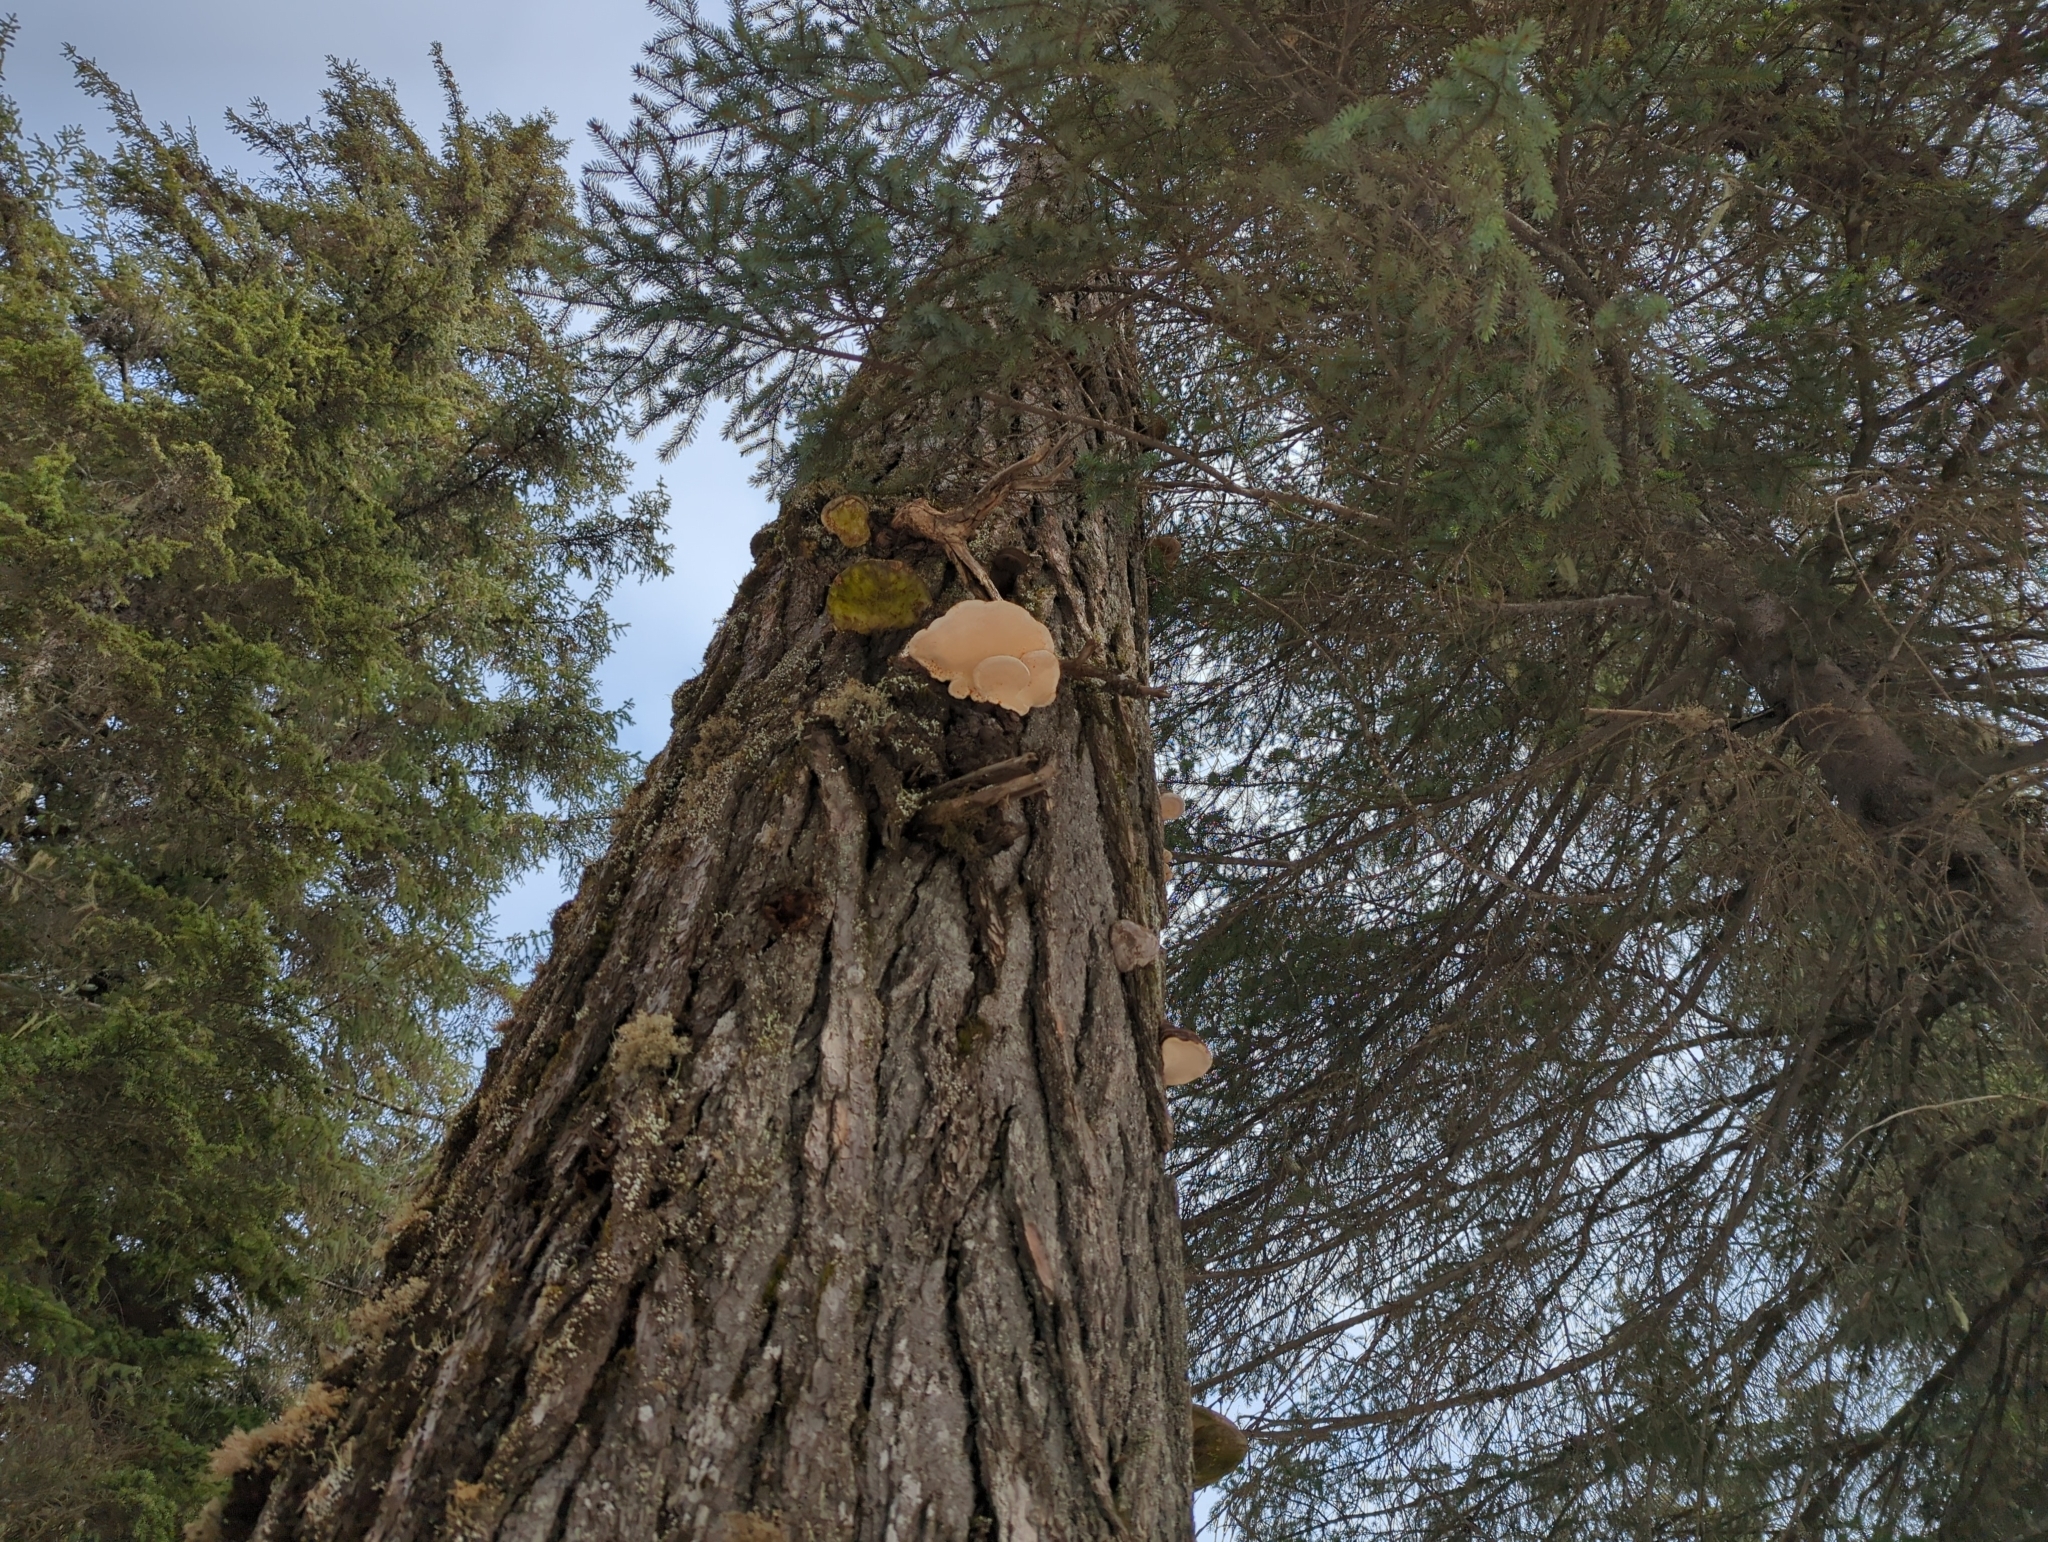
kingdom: Fungi
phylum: Basidiomycota
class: Agaricomycetes
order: Polyporales
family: Fomitopsidaceae
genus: Fomitopsis
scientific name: Fomitopsis mounceae
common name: Northern red belt
